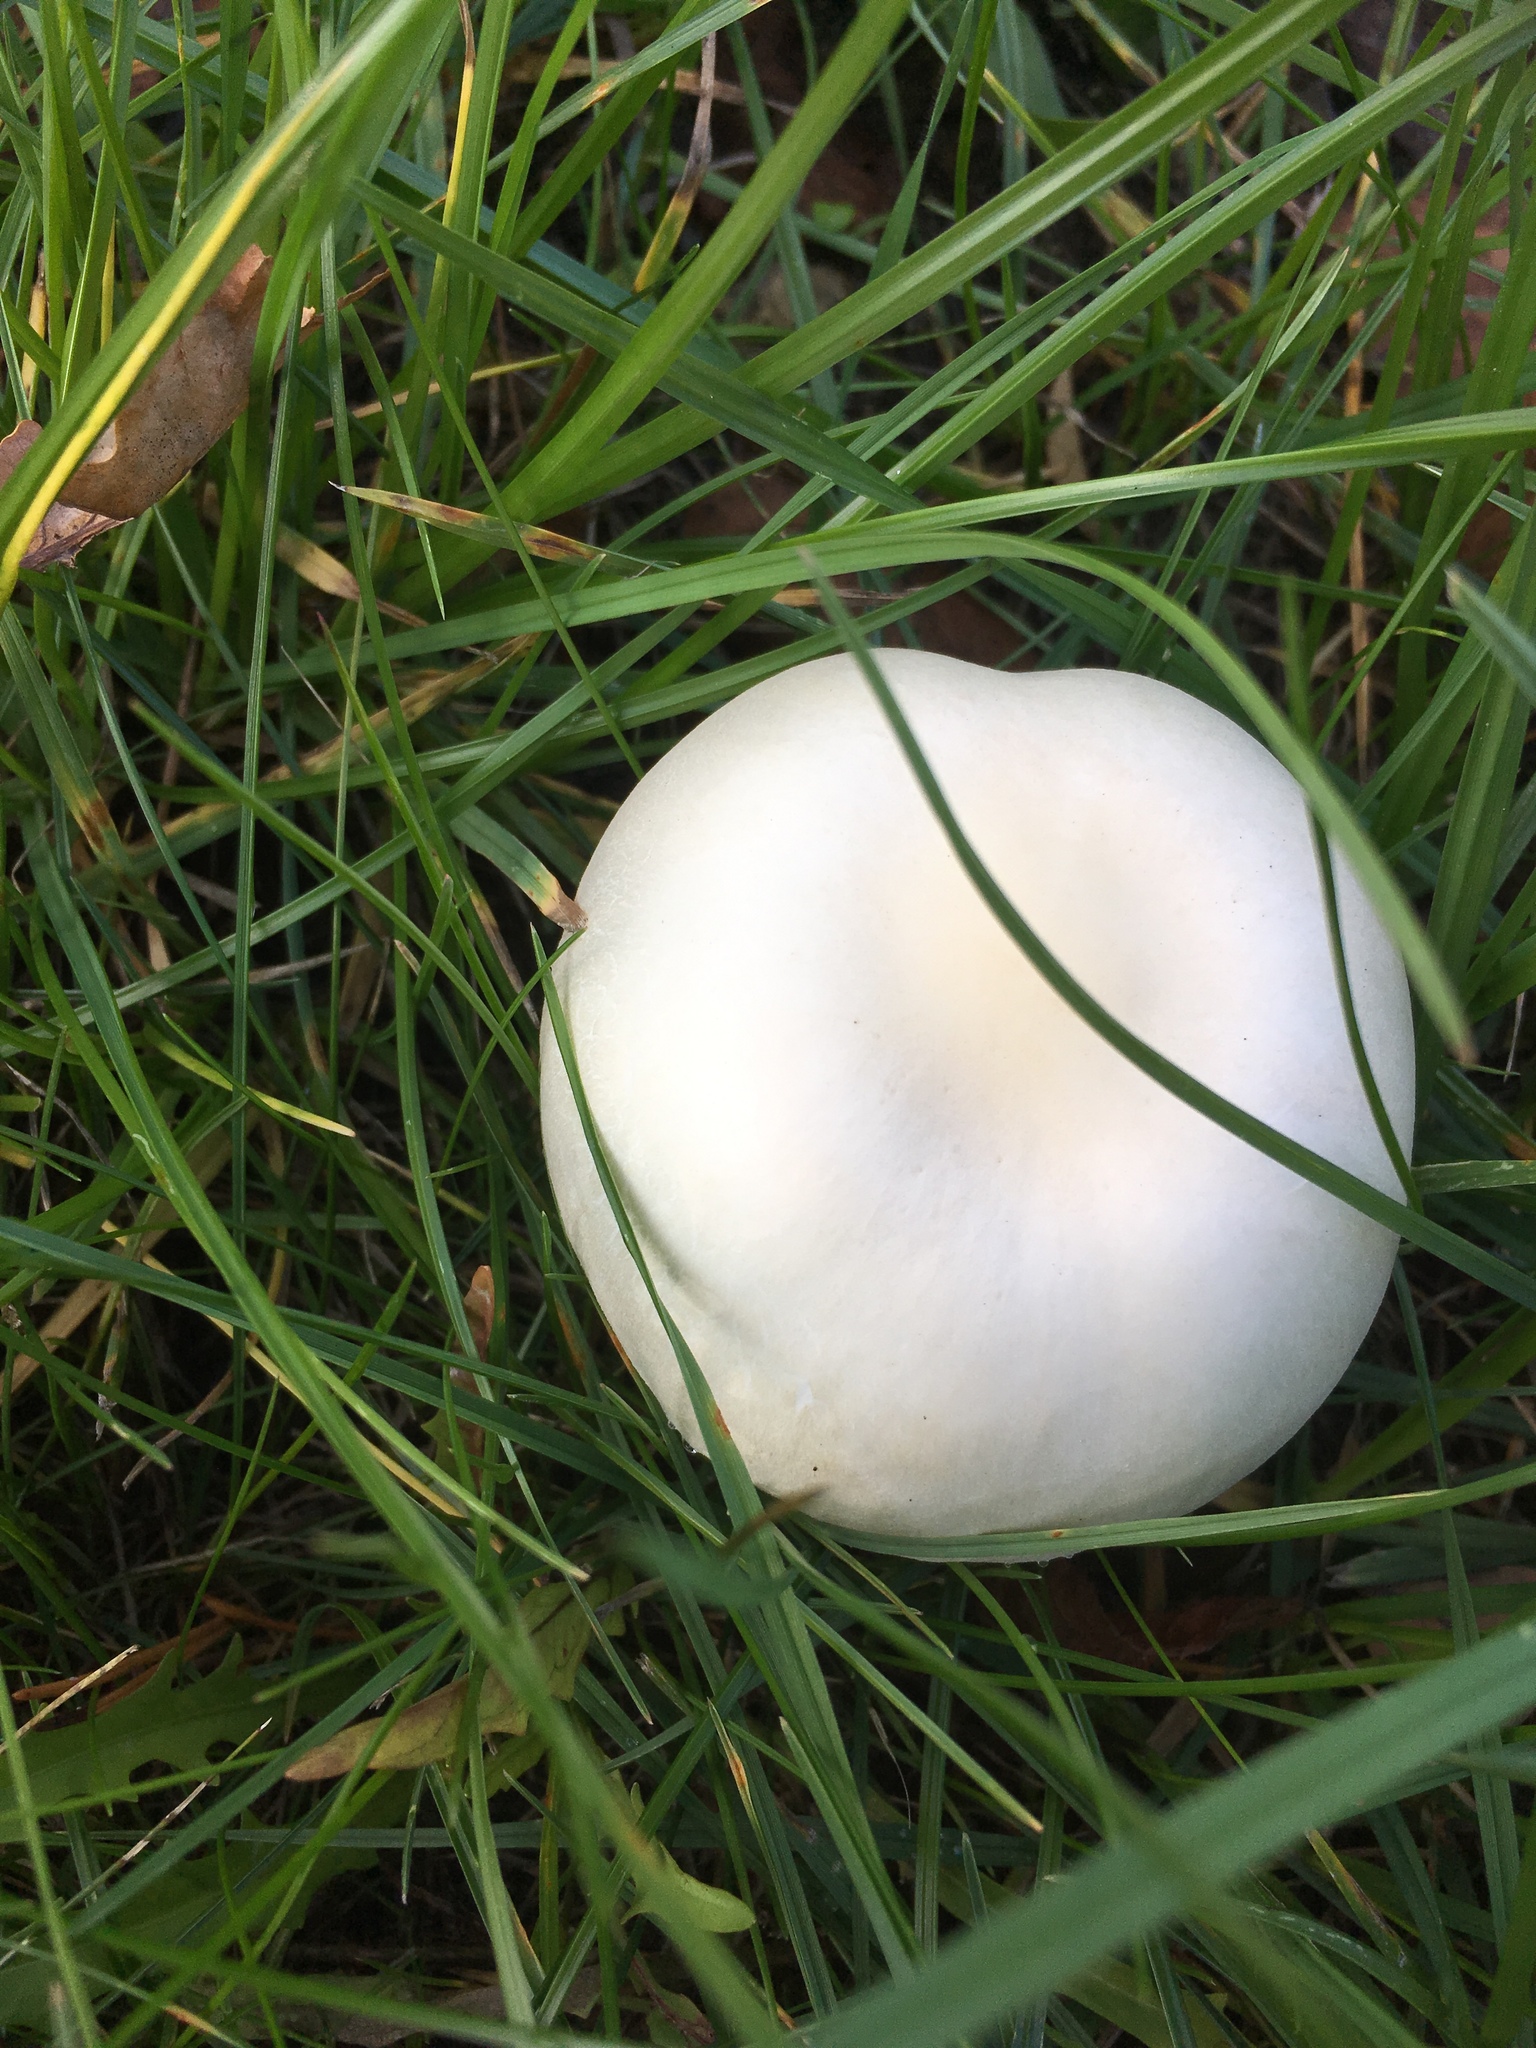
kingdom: Fungi
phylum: Basidiomycota
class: Agaricomycetes
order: Agaricales
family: Agaricaceae
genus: Leucoagaricus
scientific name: Leucoagaricus leucothites
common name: White dapperling
